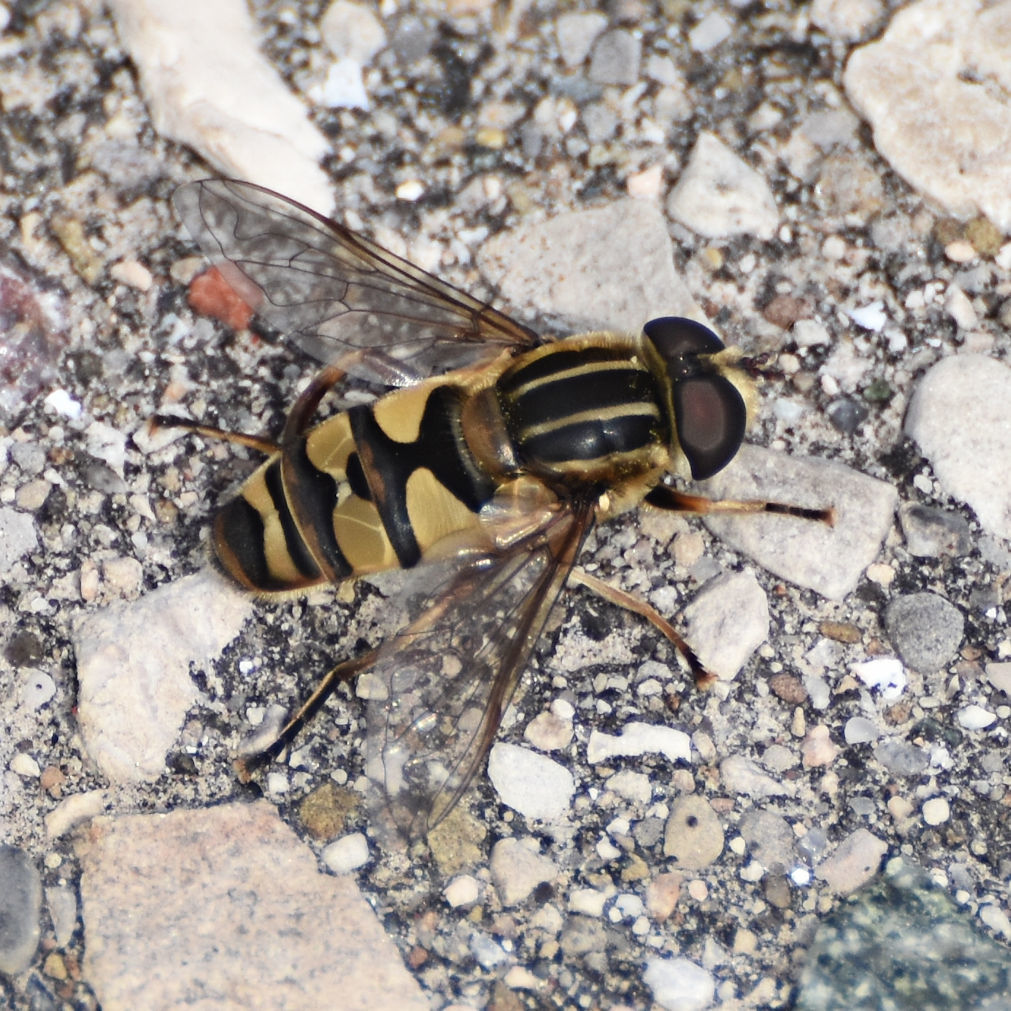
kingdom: Animalia
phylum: Arthropoda
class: Insecta
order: Diptera
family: Syrphidae
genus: Helophilus
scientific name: Helophilus fasciatus
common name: Narrow-headed marsh fly
